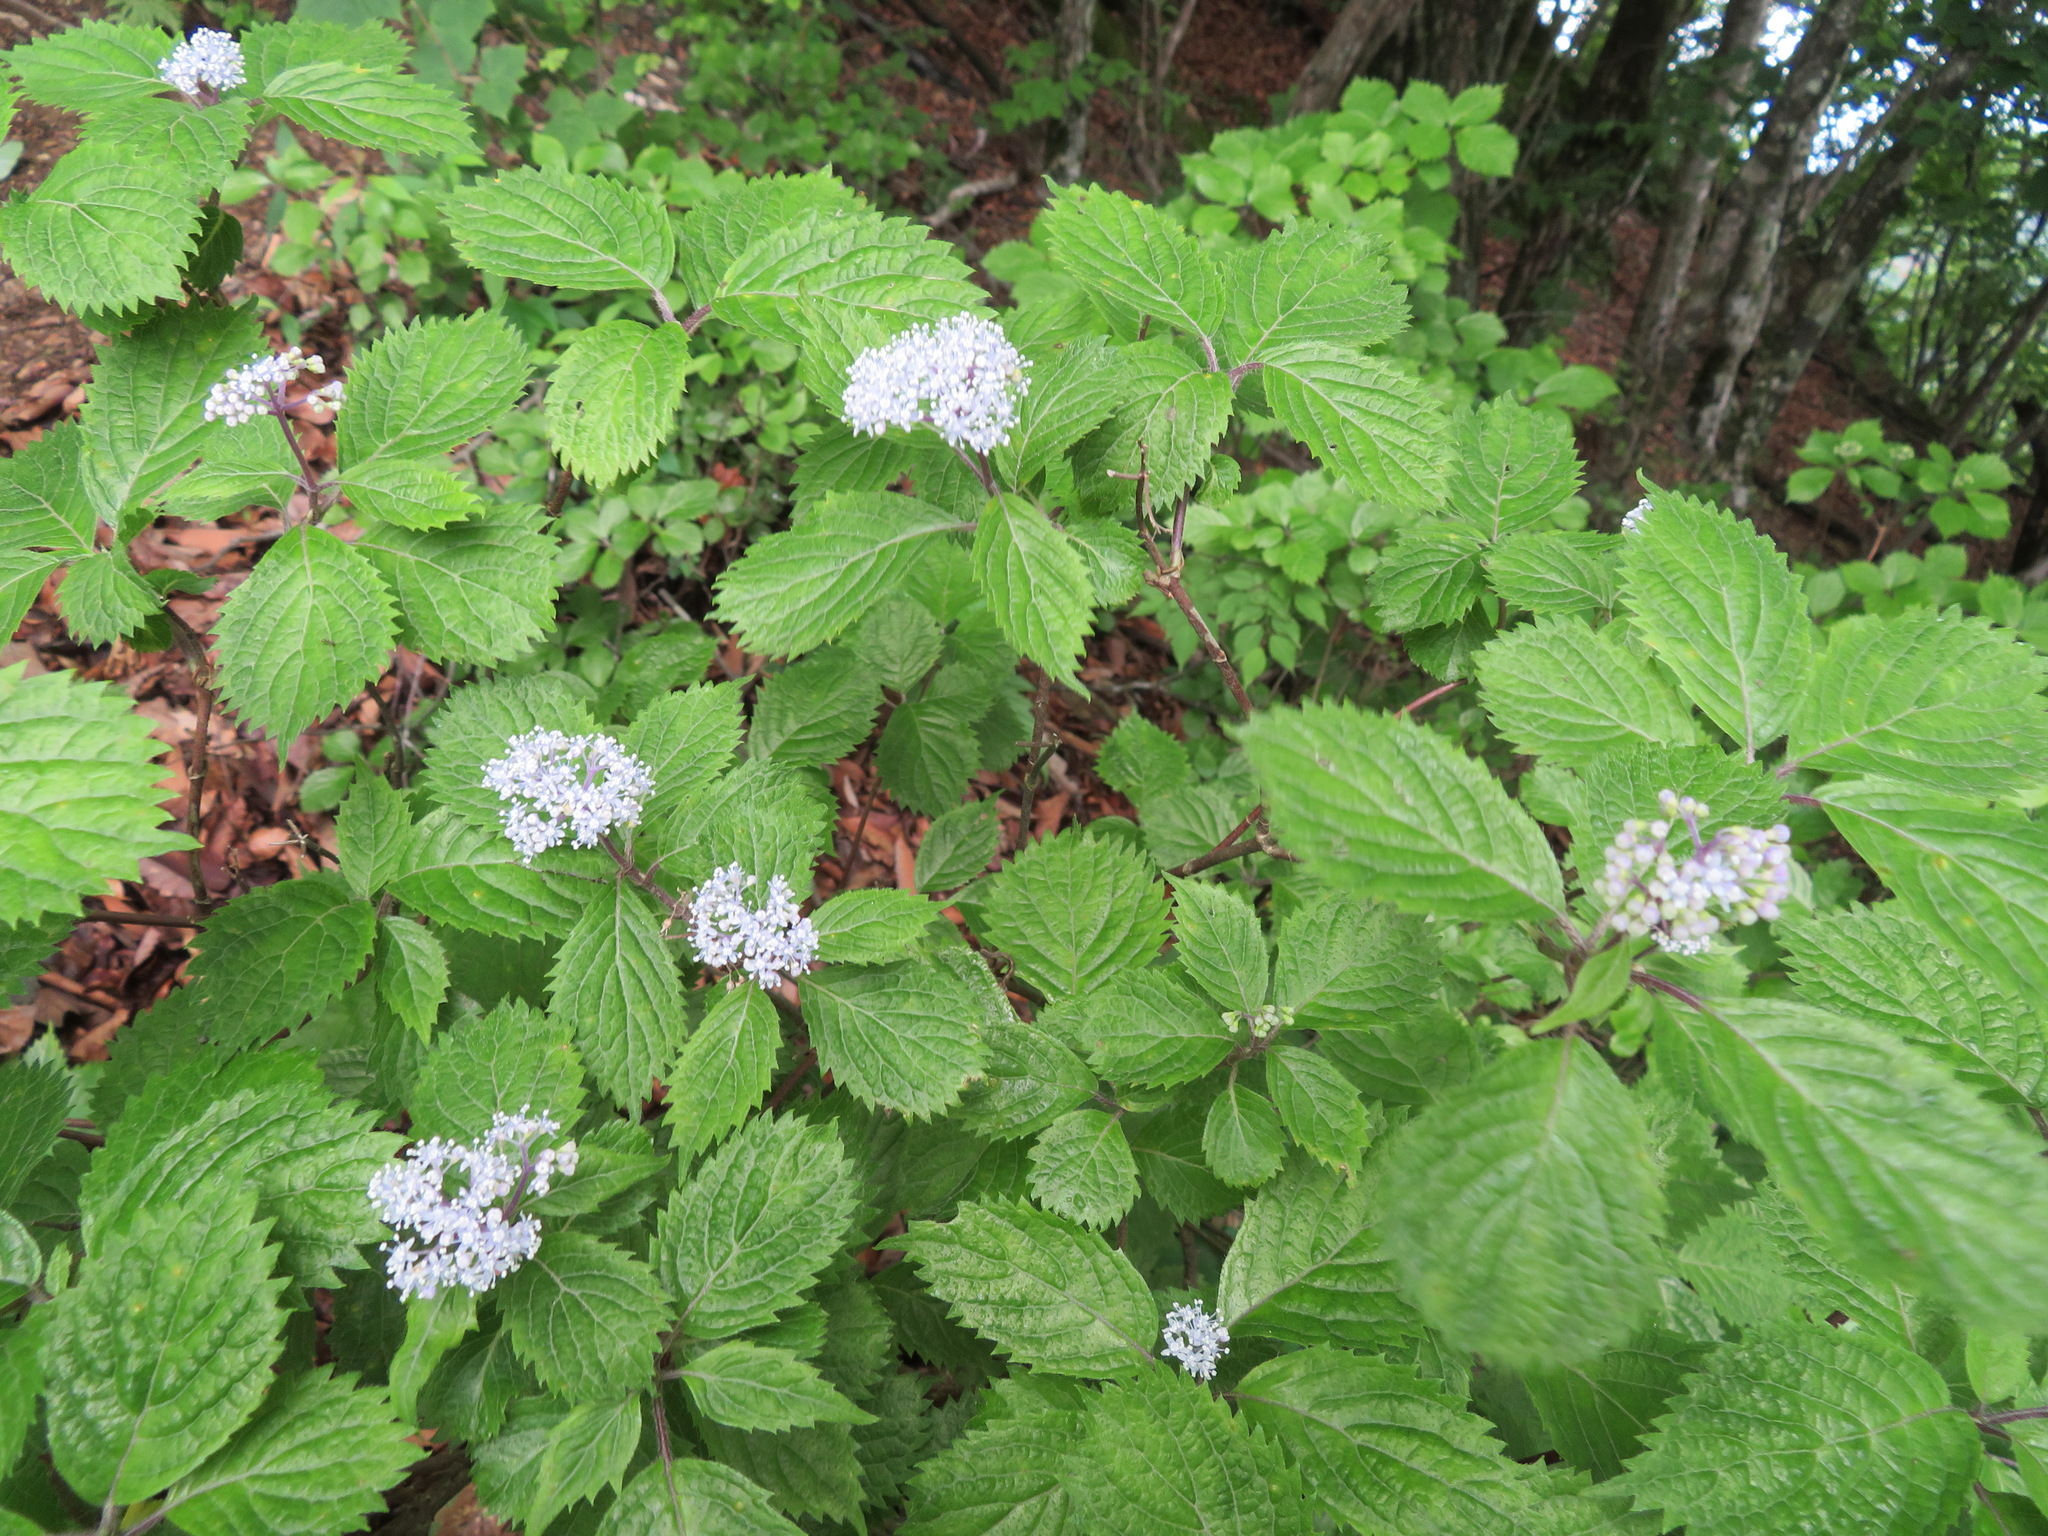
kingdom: Plantae
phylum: Tracheophyta
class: Magnoliopsida
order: Cornales
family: Hydrangeaceae
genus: Hydrangea
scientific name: Hydrangea hirta
